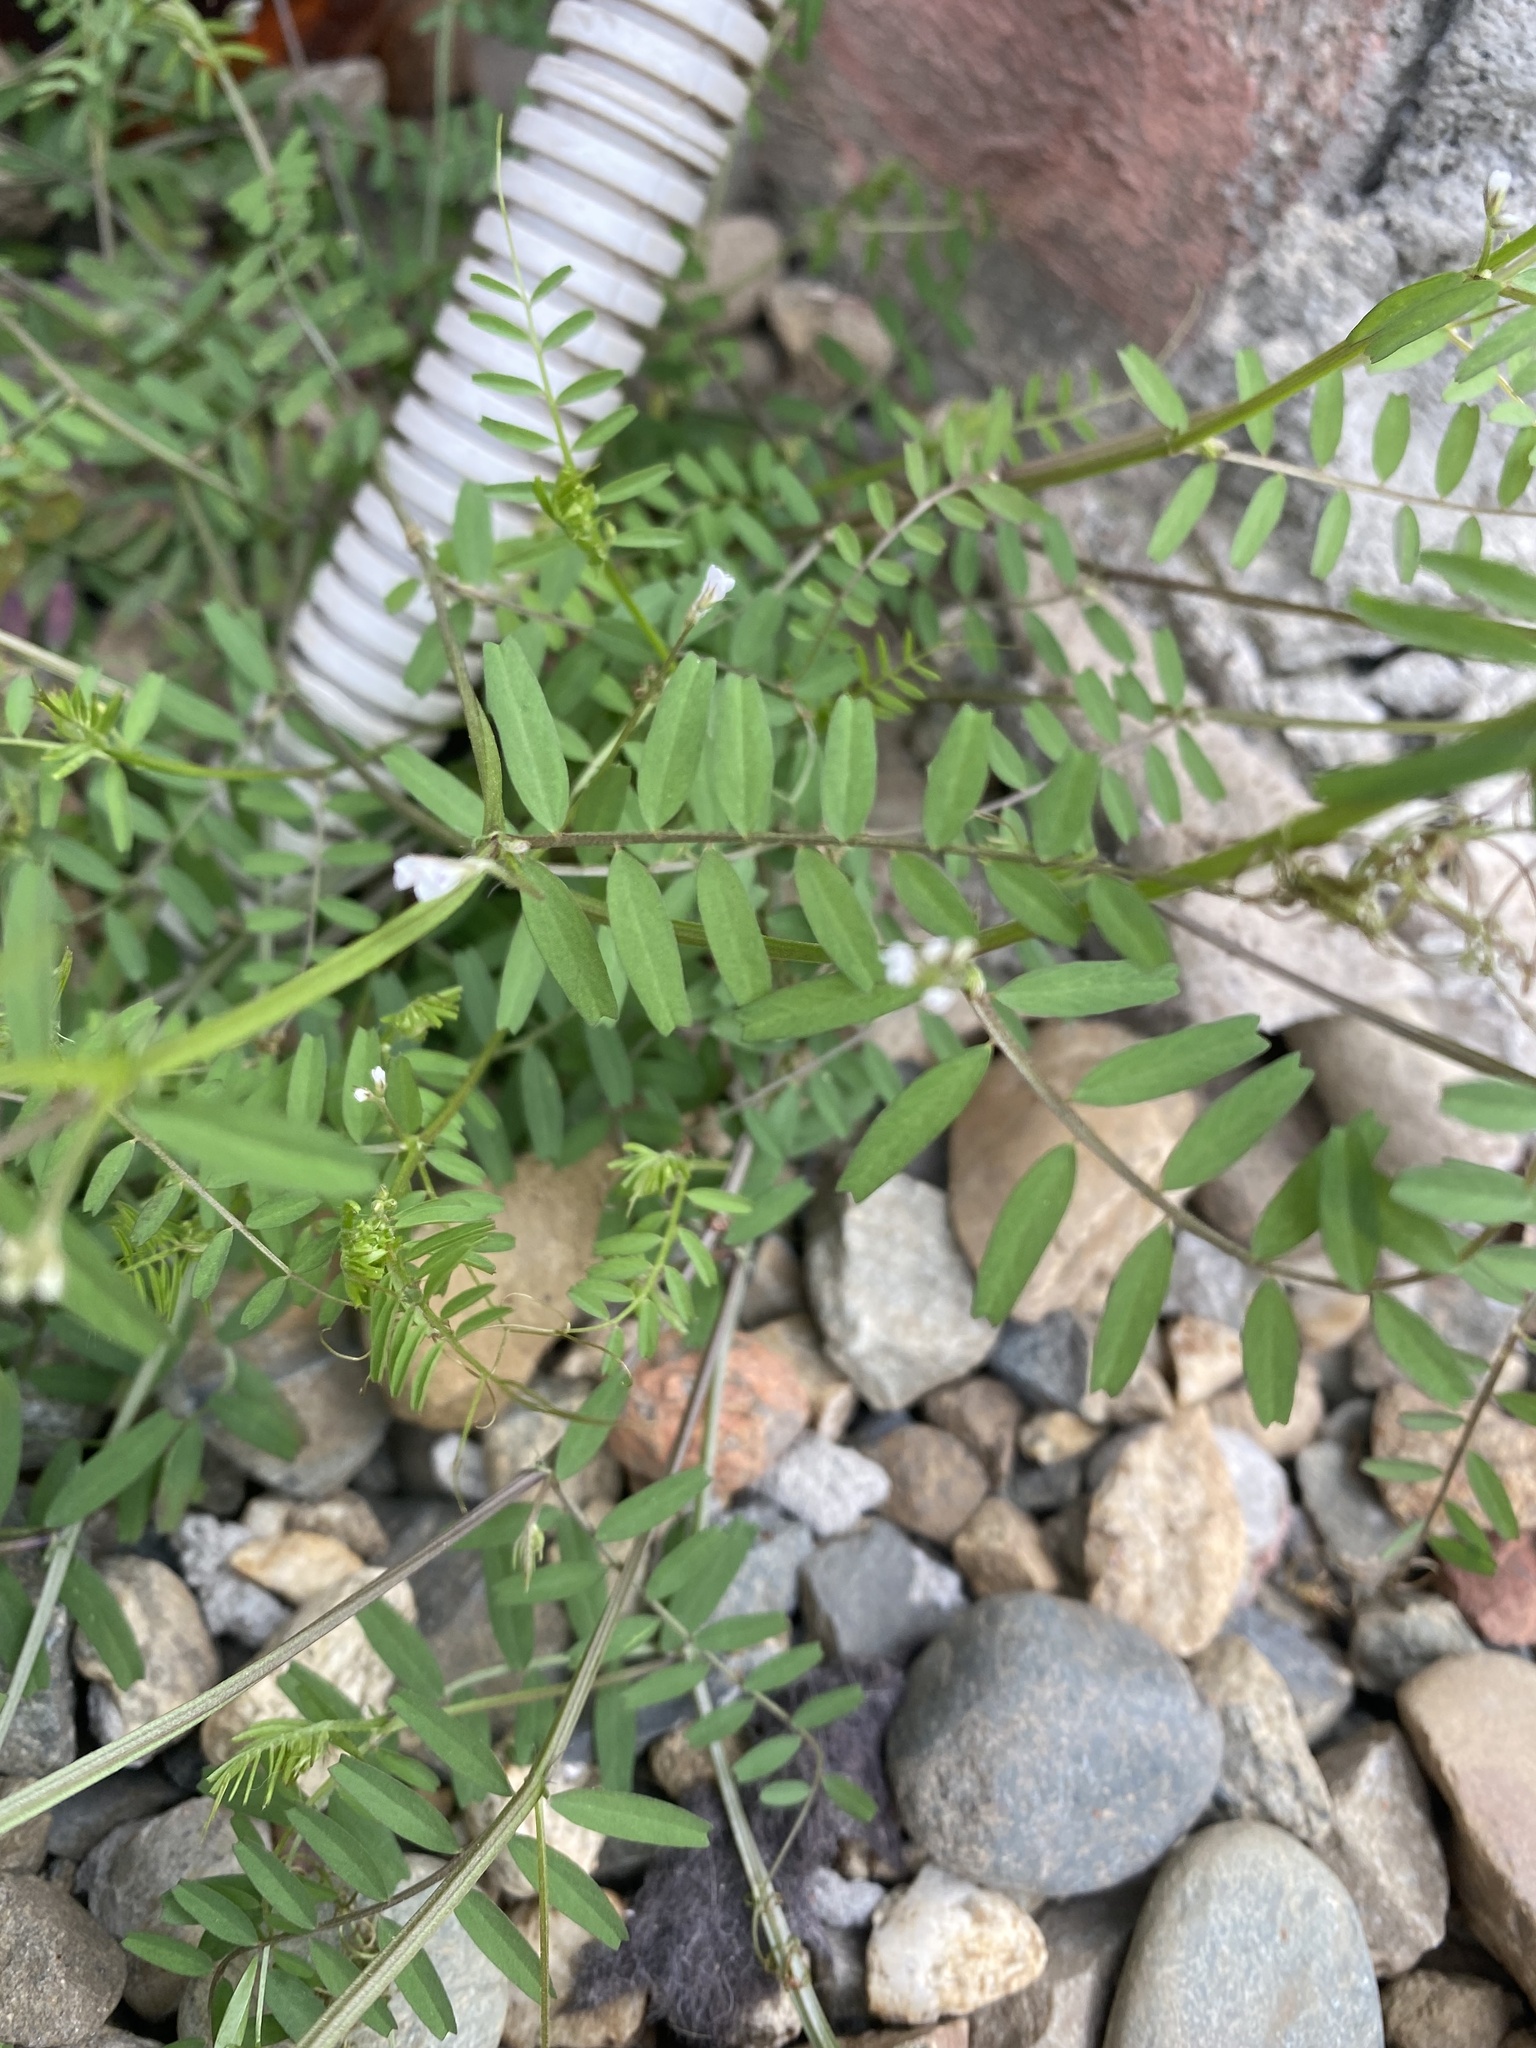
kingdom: Plantae
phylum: Tracheophyta
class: Magnoliopsida
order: Fabales
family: Fabaceae
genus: Vicia
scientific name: Vicia tetrasperma
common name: Smooth tare
